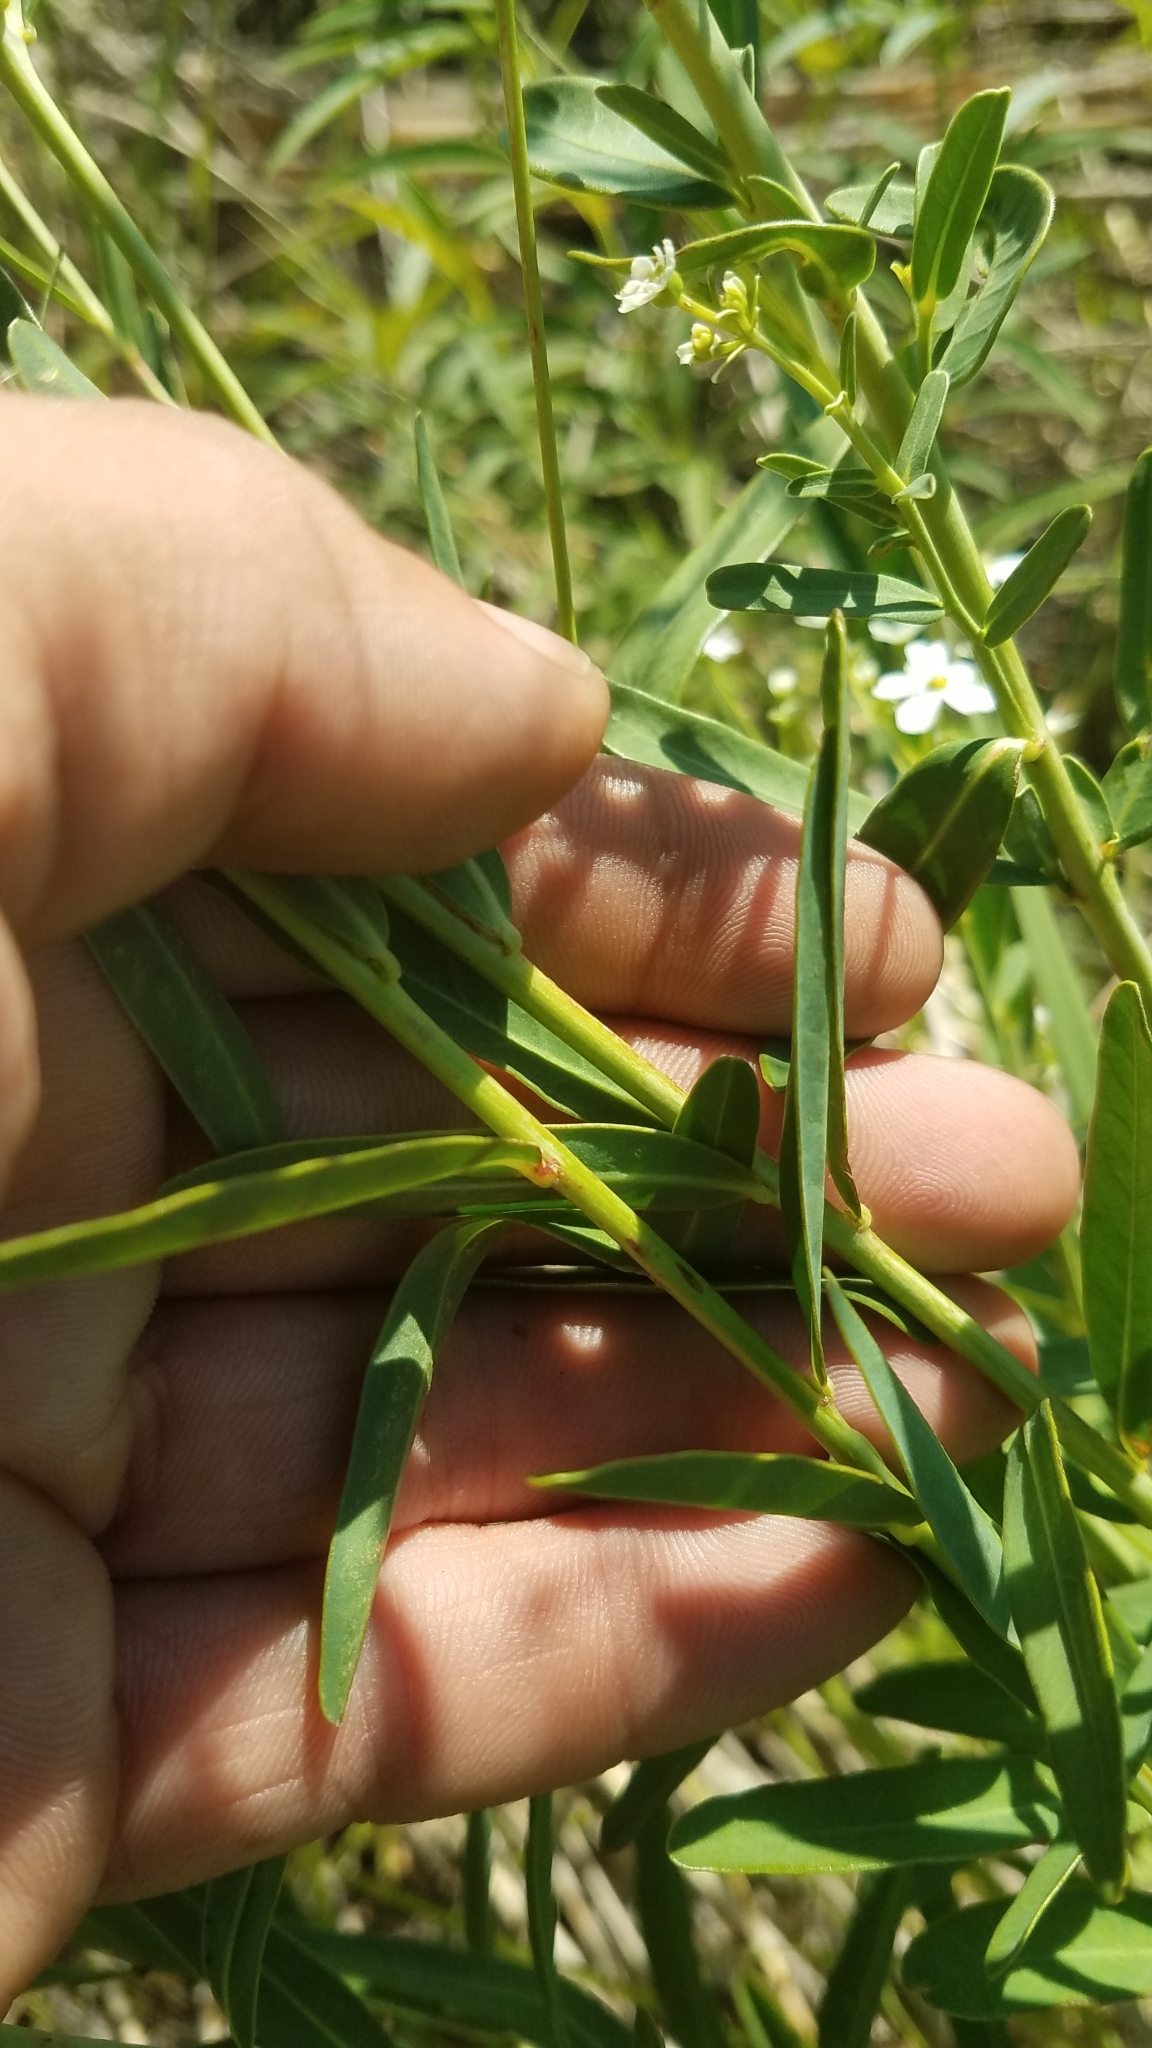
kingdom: Plantae
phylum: Tracheophyta
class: Magnoliopsida
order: Malpighiales
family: Euphorbiaceae
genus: Euphorbia
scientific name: Euphorbia corollata
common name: Flowering spurge
